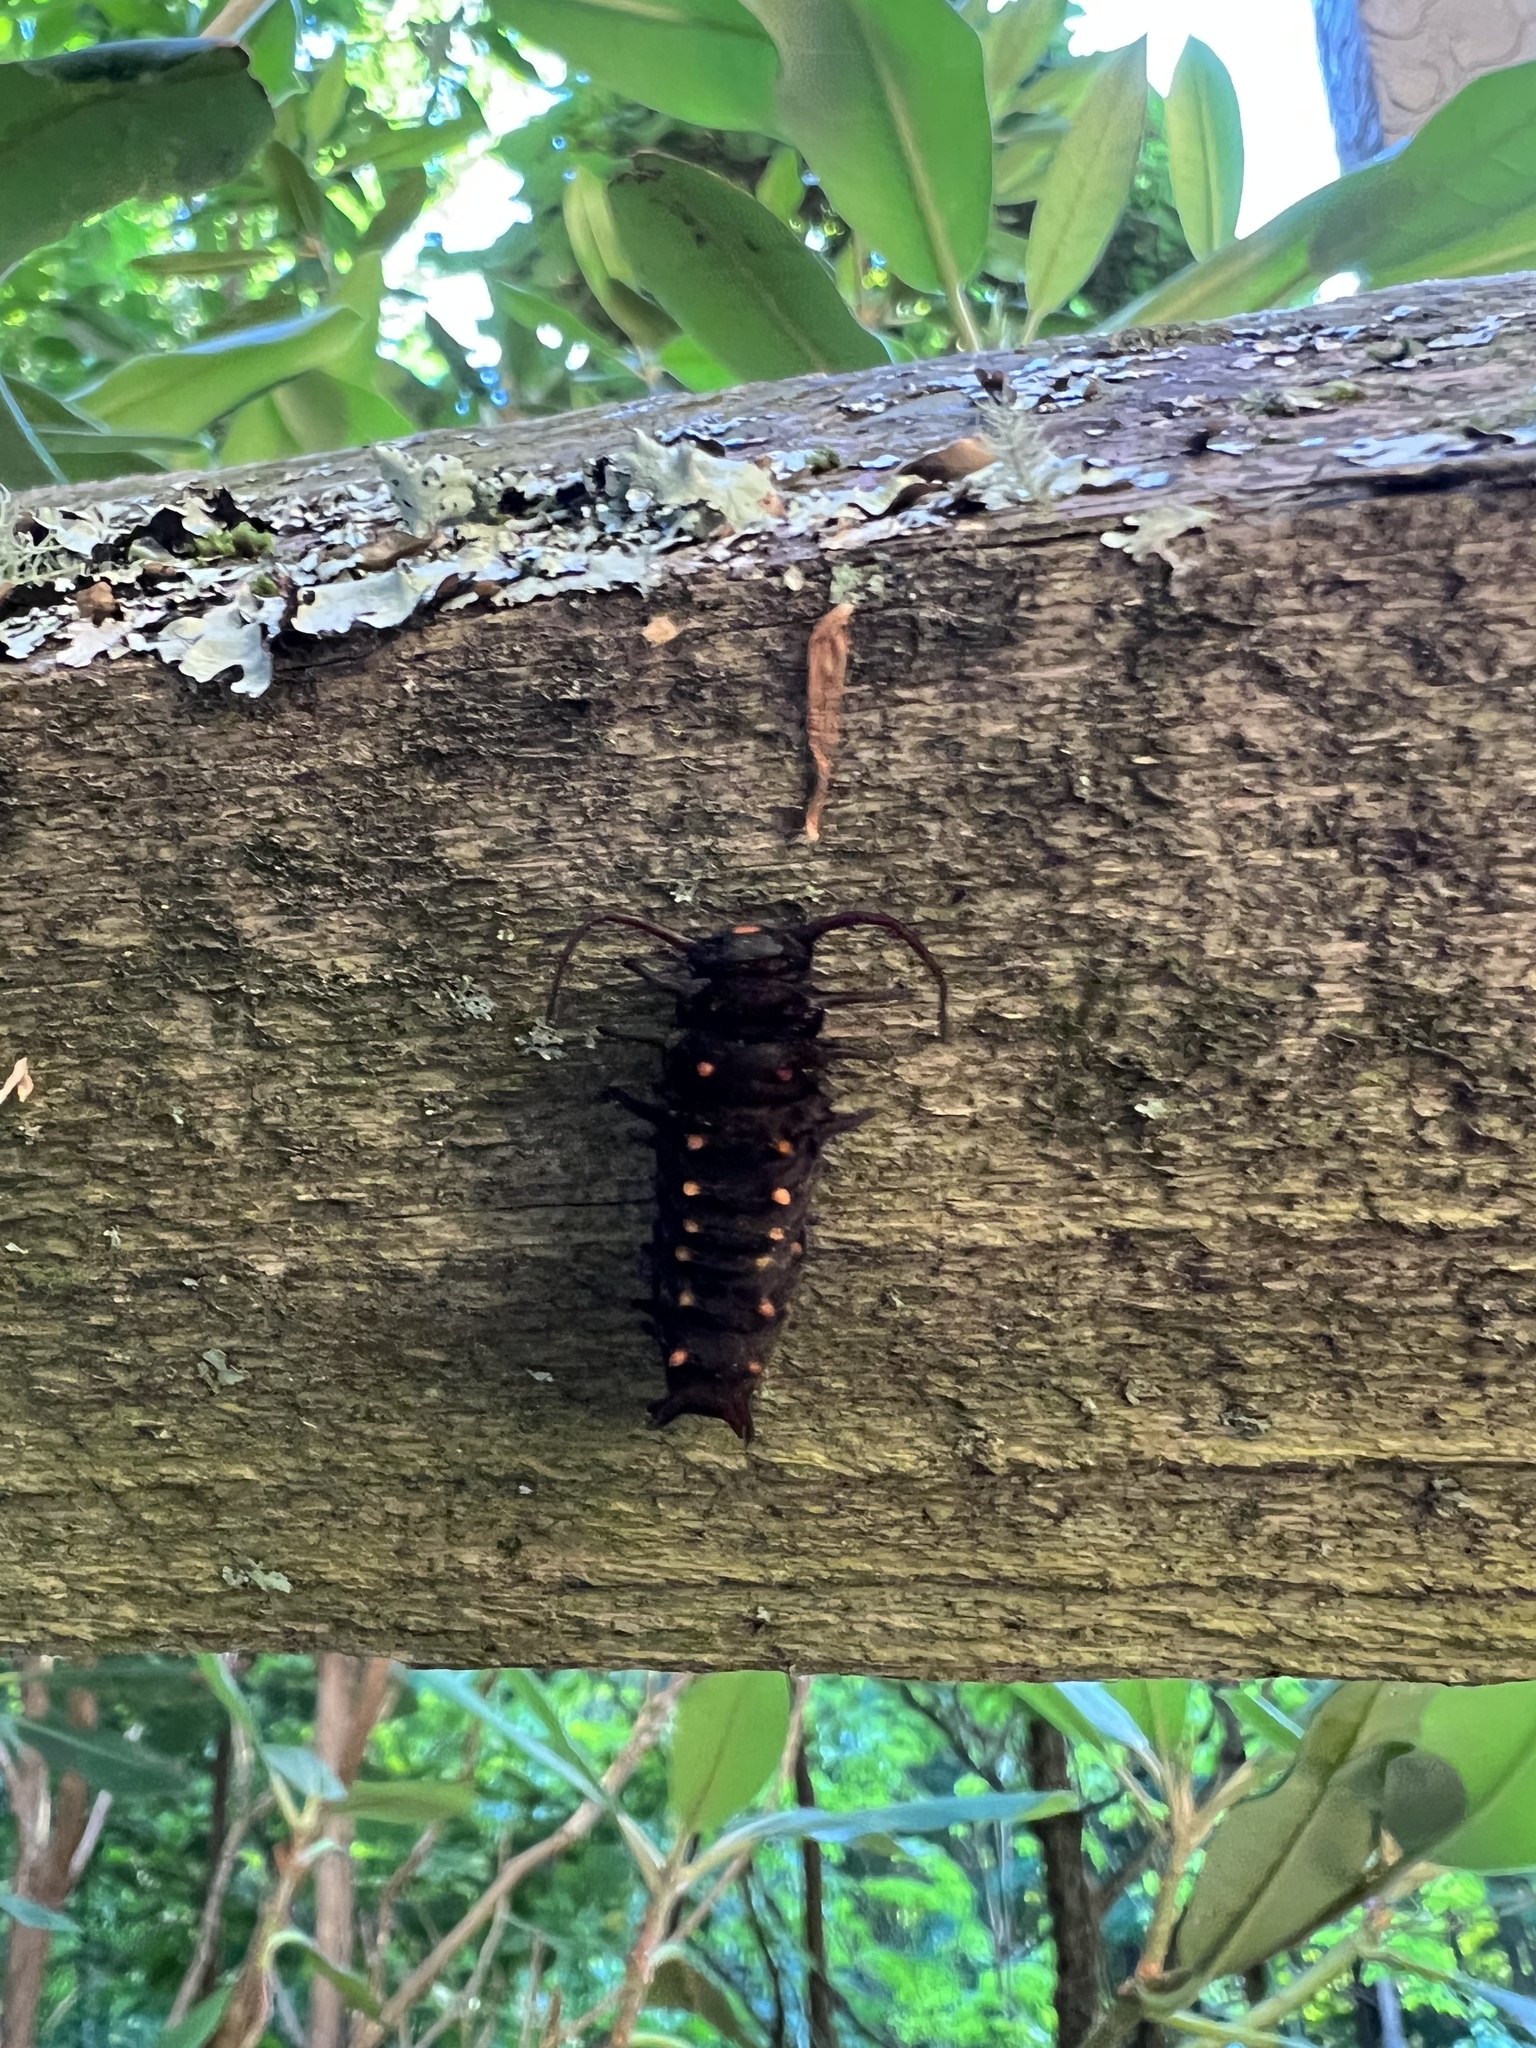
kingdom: Animalia
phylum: Arthropoda
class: Insecta
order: Lepidoptera
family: Papilionidae
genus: Battus
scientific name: Battus philenor
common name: Pipevine swallowtail
